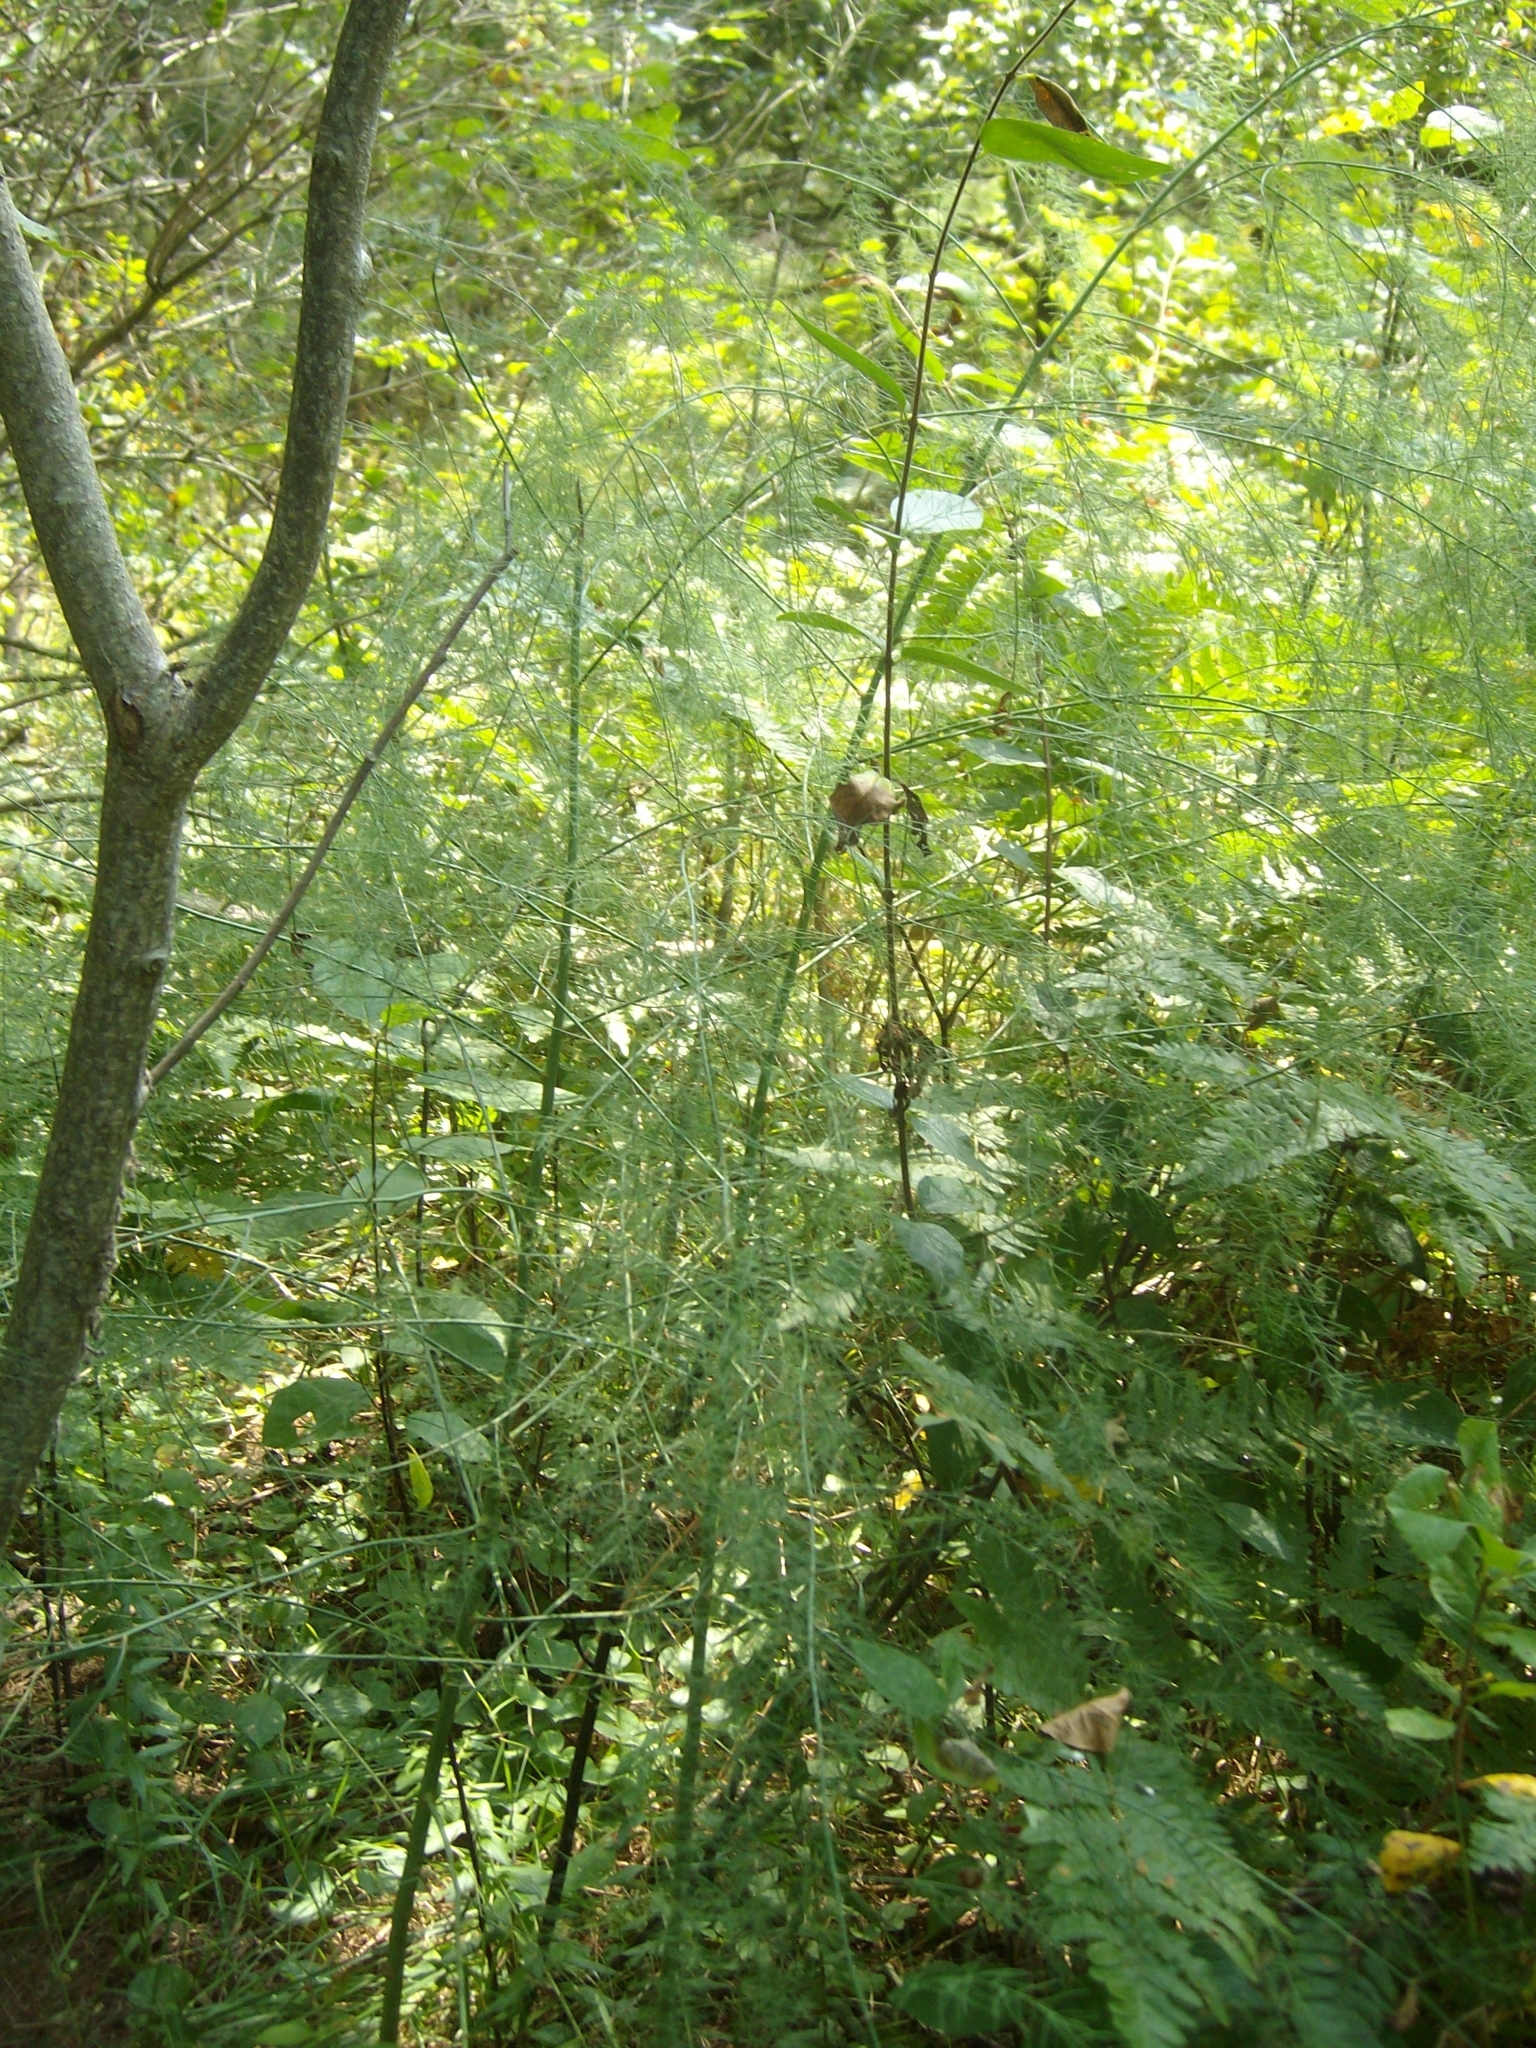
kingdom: Plantae
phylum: Tracheophyta
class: Liliopsida
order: Asparagales
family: Asparagaceae
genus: Asparagus
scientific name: Asparagus officinalis
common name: Garden asparagus
